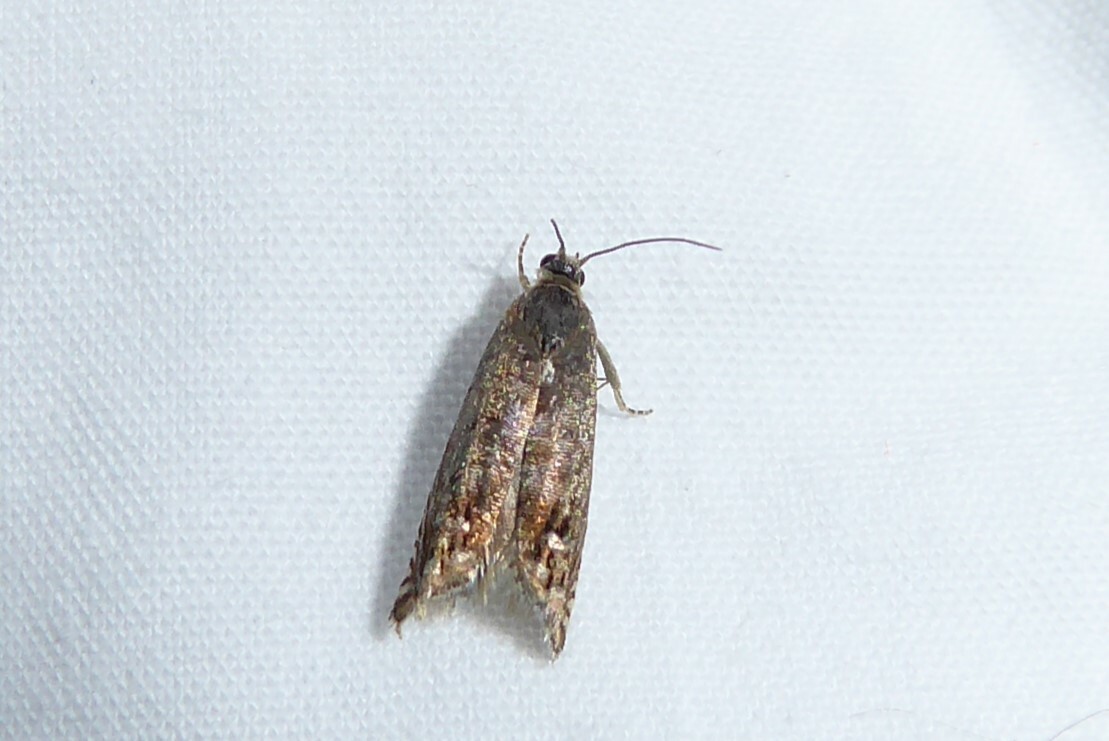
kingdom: Animalia
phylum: Arthropoda
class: Insecta
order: Lepidoptera
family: Tortricidae
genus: Cydia
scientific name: Cydia succedana
